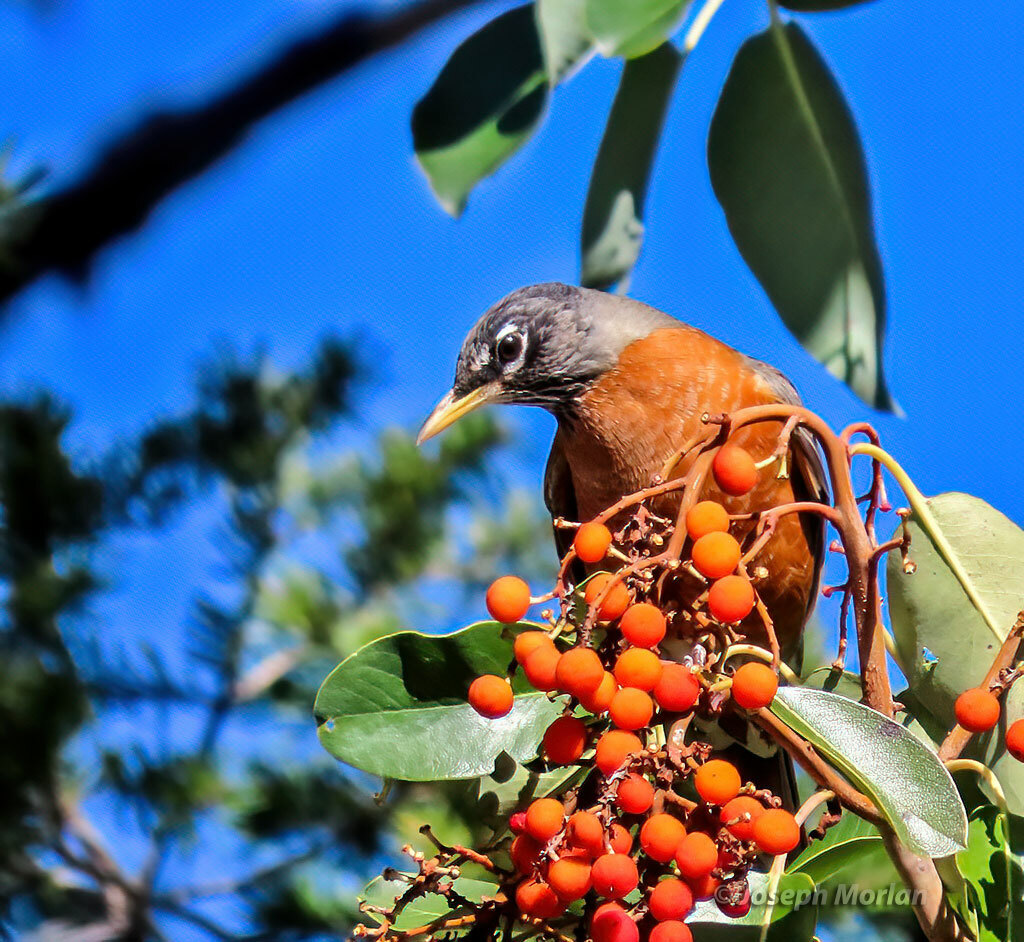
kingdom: Animalia
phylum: Chordata
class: Aves
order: Passeriformes
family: Turdidae
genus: Turdus
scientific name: Turdus migratorius
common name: American robin
